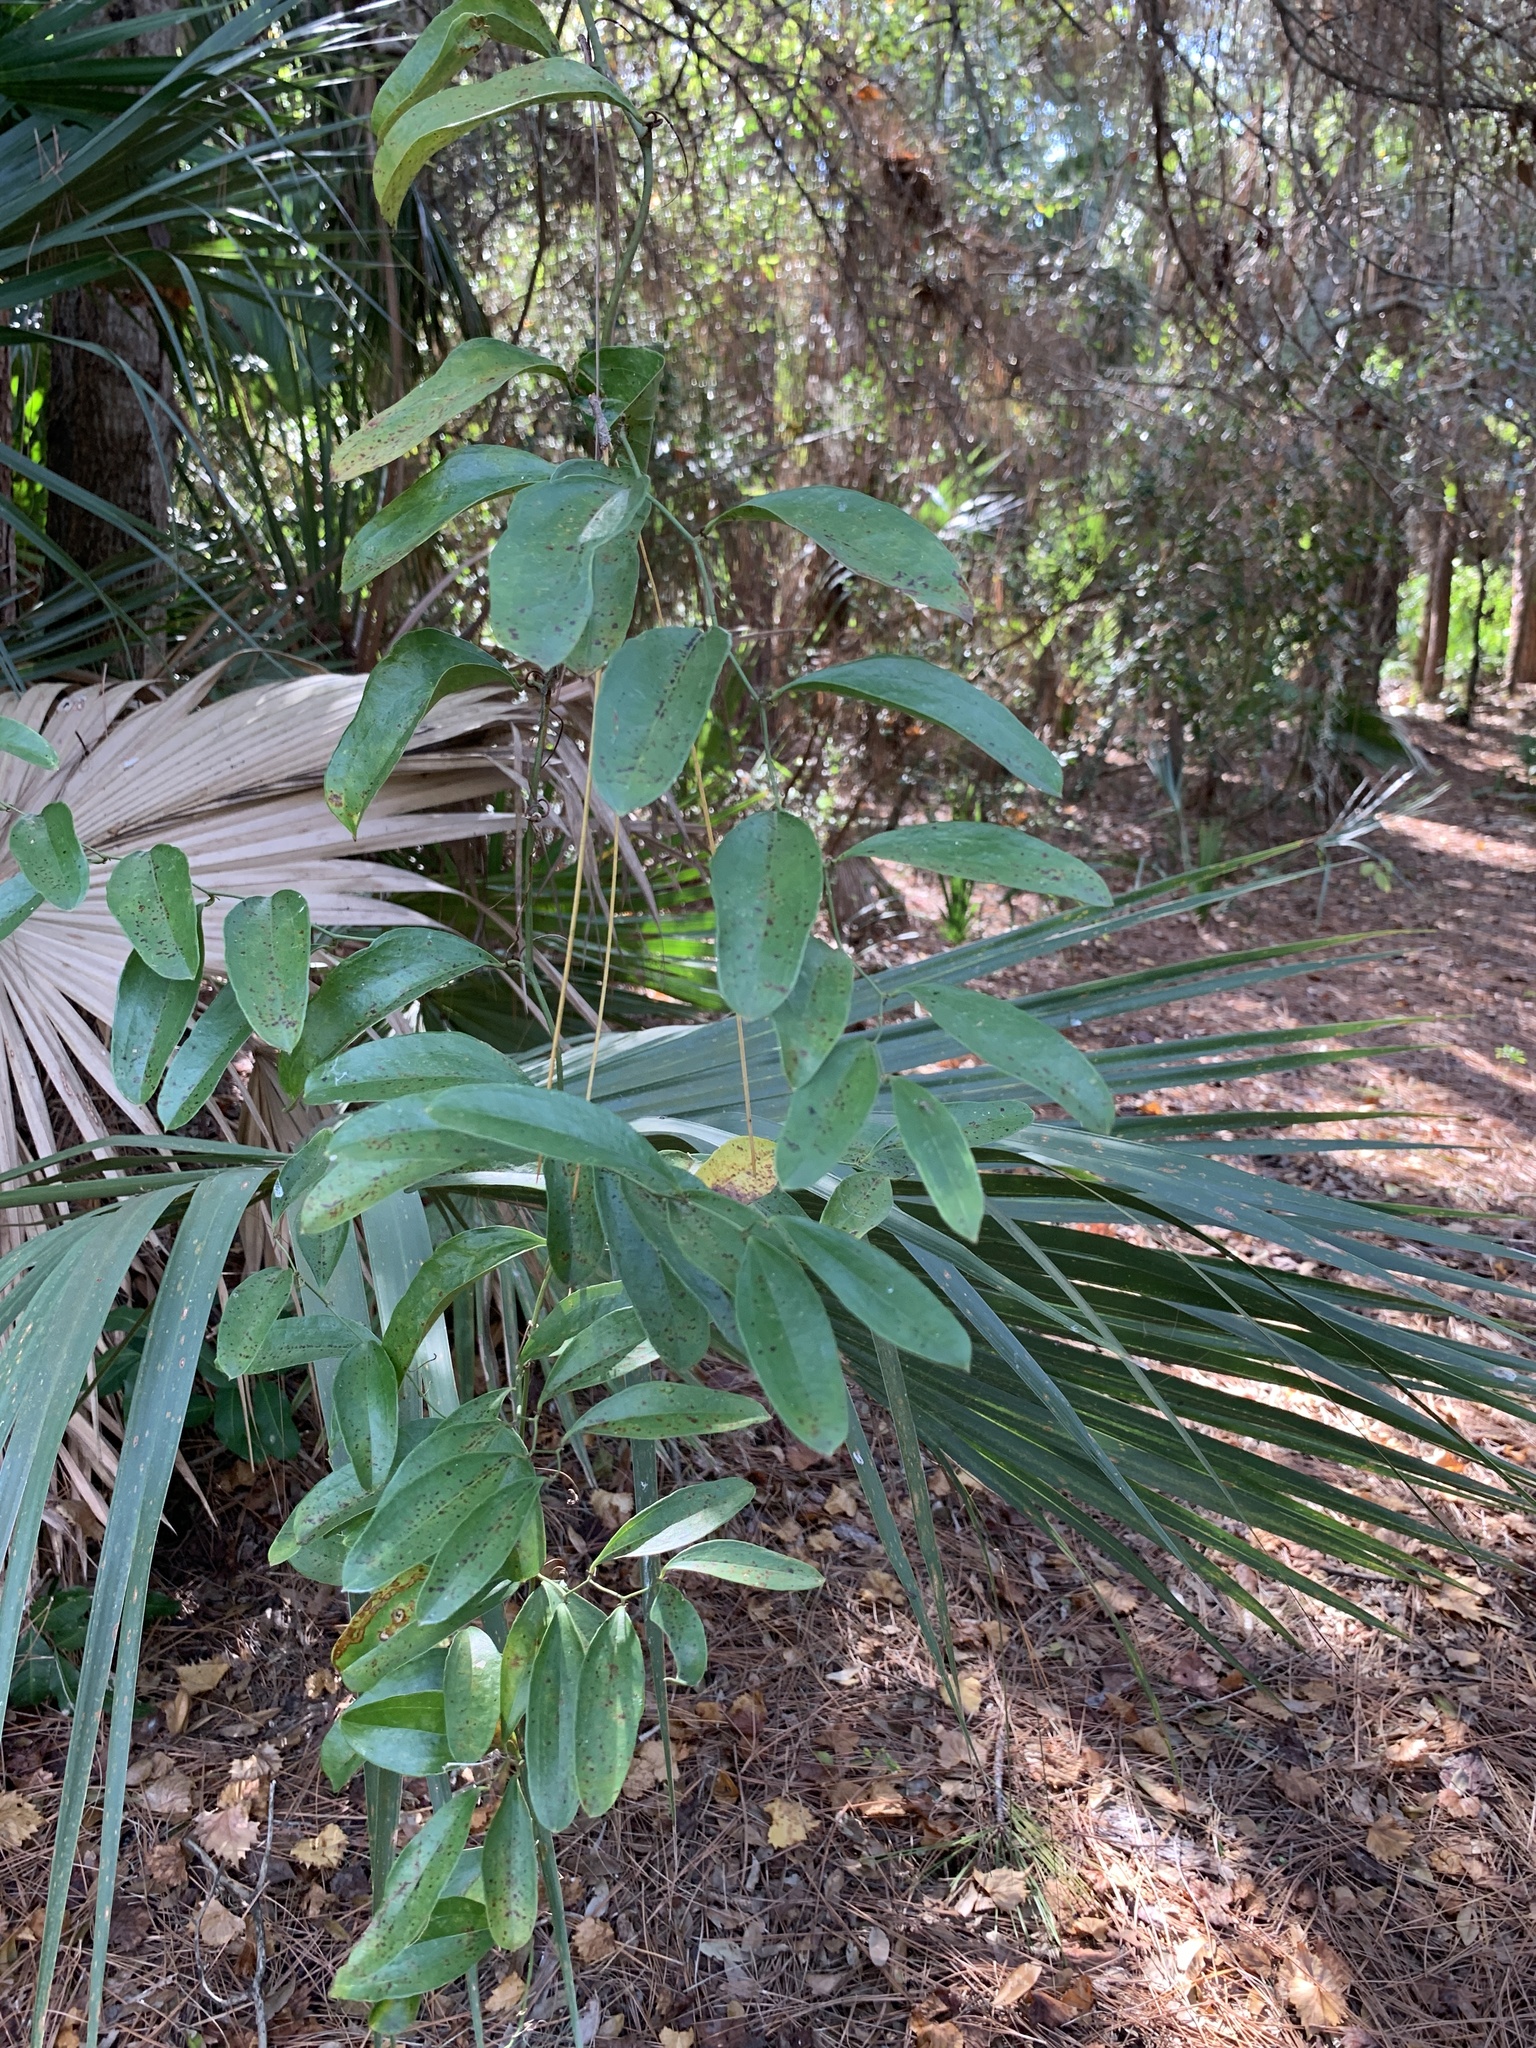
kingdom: Plantae
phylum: Tracheophyta
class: Liliopsida
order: Liliales
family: Smilacaceae
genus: Smilax
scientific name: Smilax auriculata
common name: Wild bamboo
